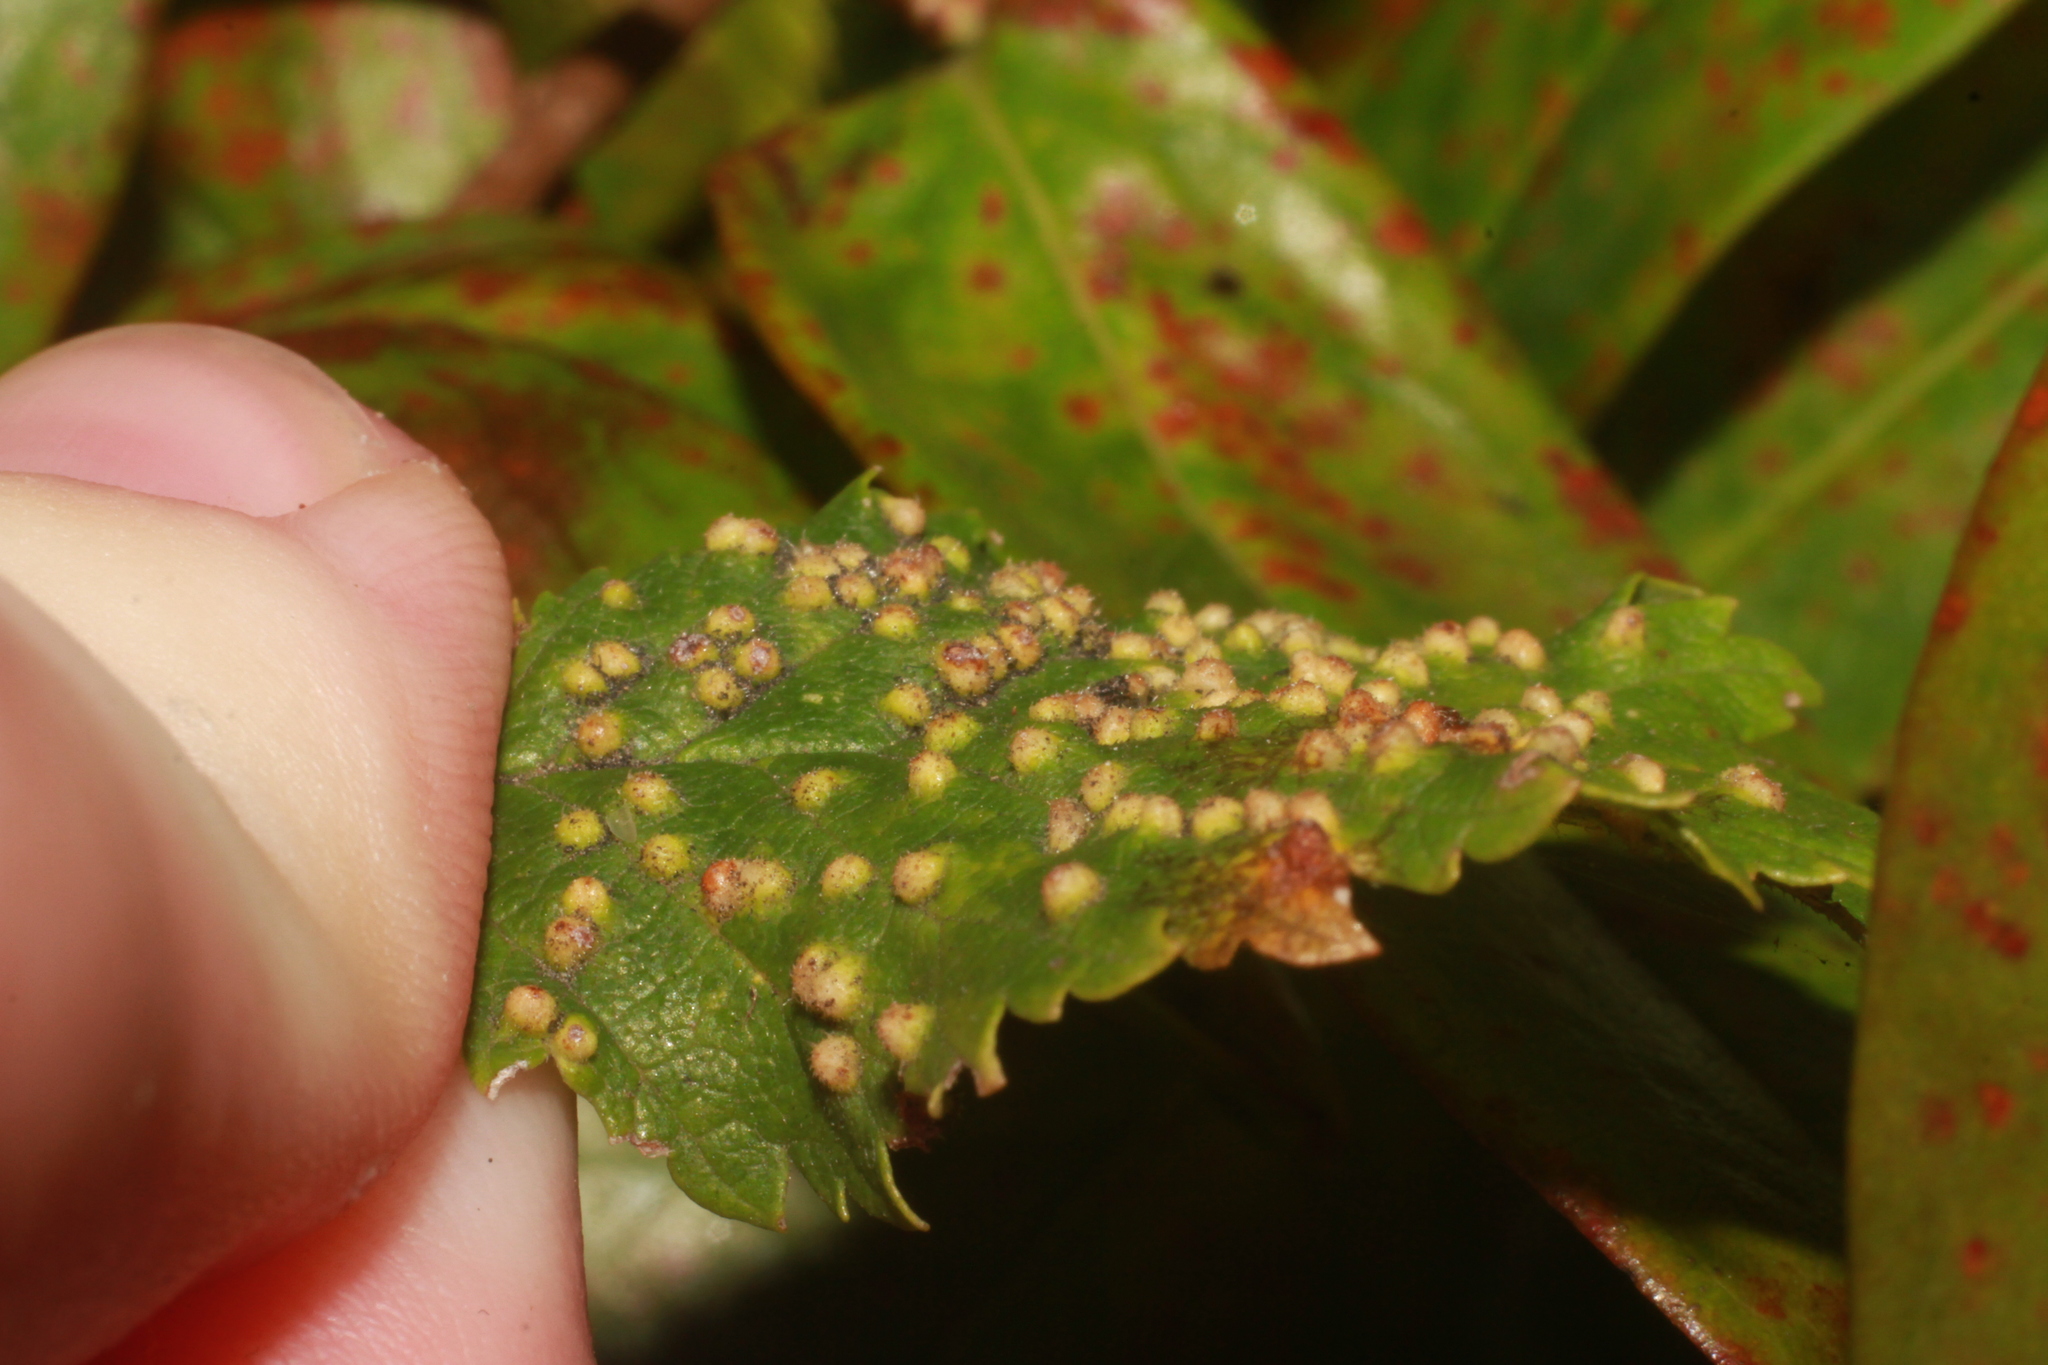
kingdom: Animalia
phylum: Arthropoda
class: Arachnida
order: Trombidiformes
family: Eriophyidae
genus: Aceria
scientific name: Aceria brevipunctata
